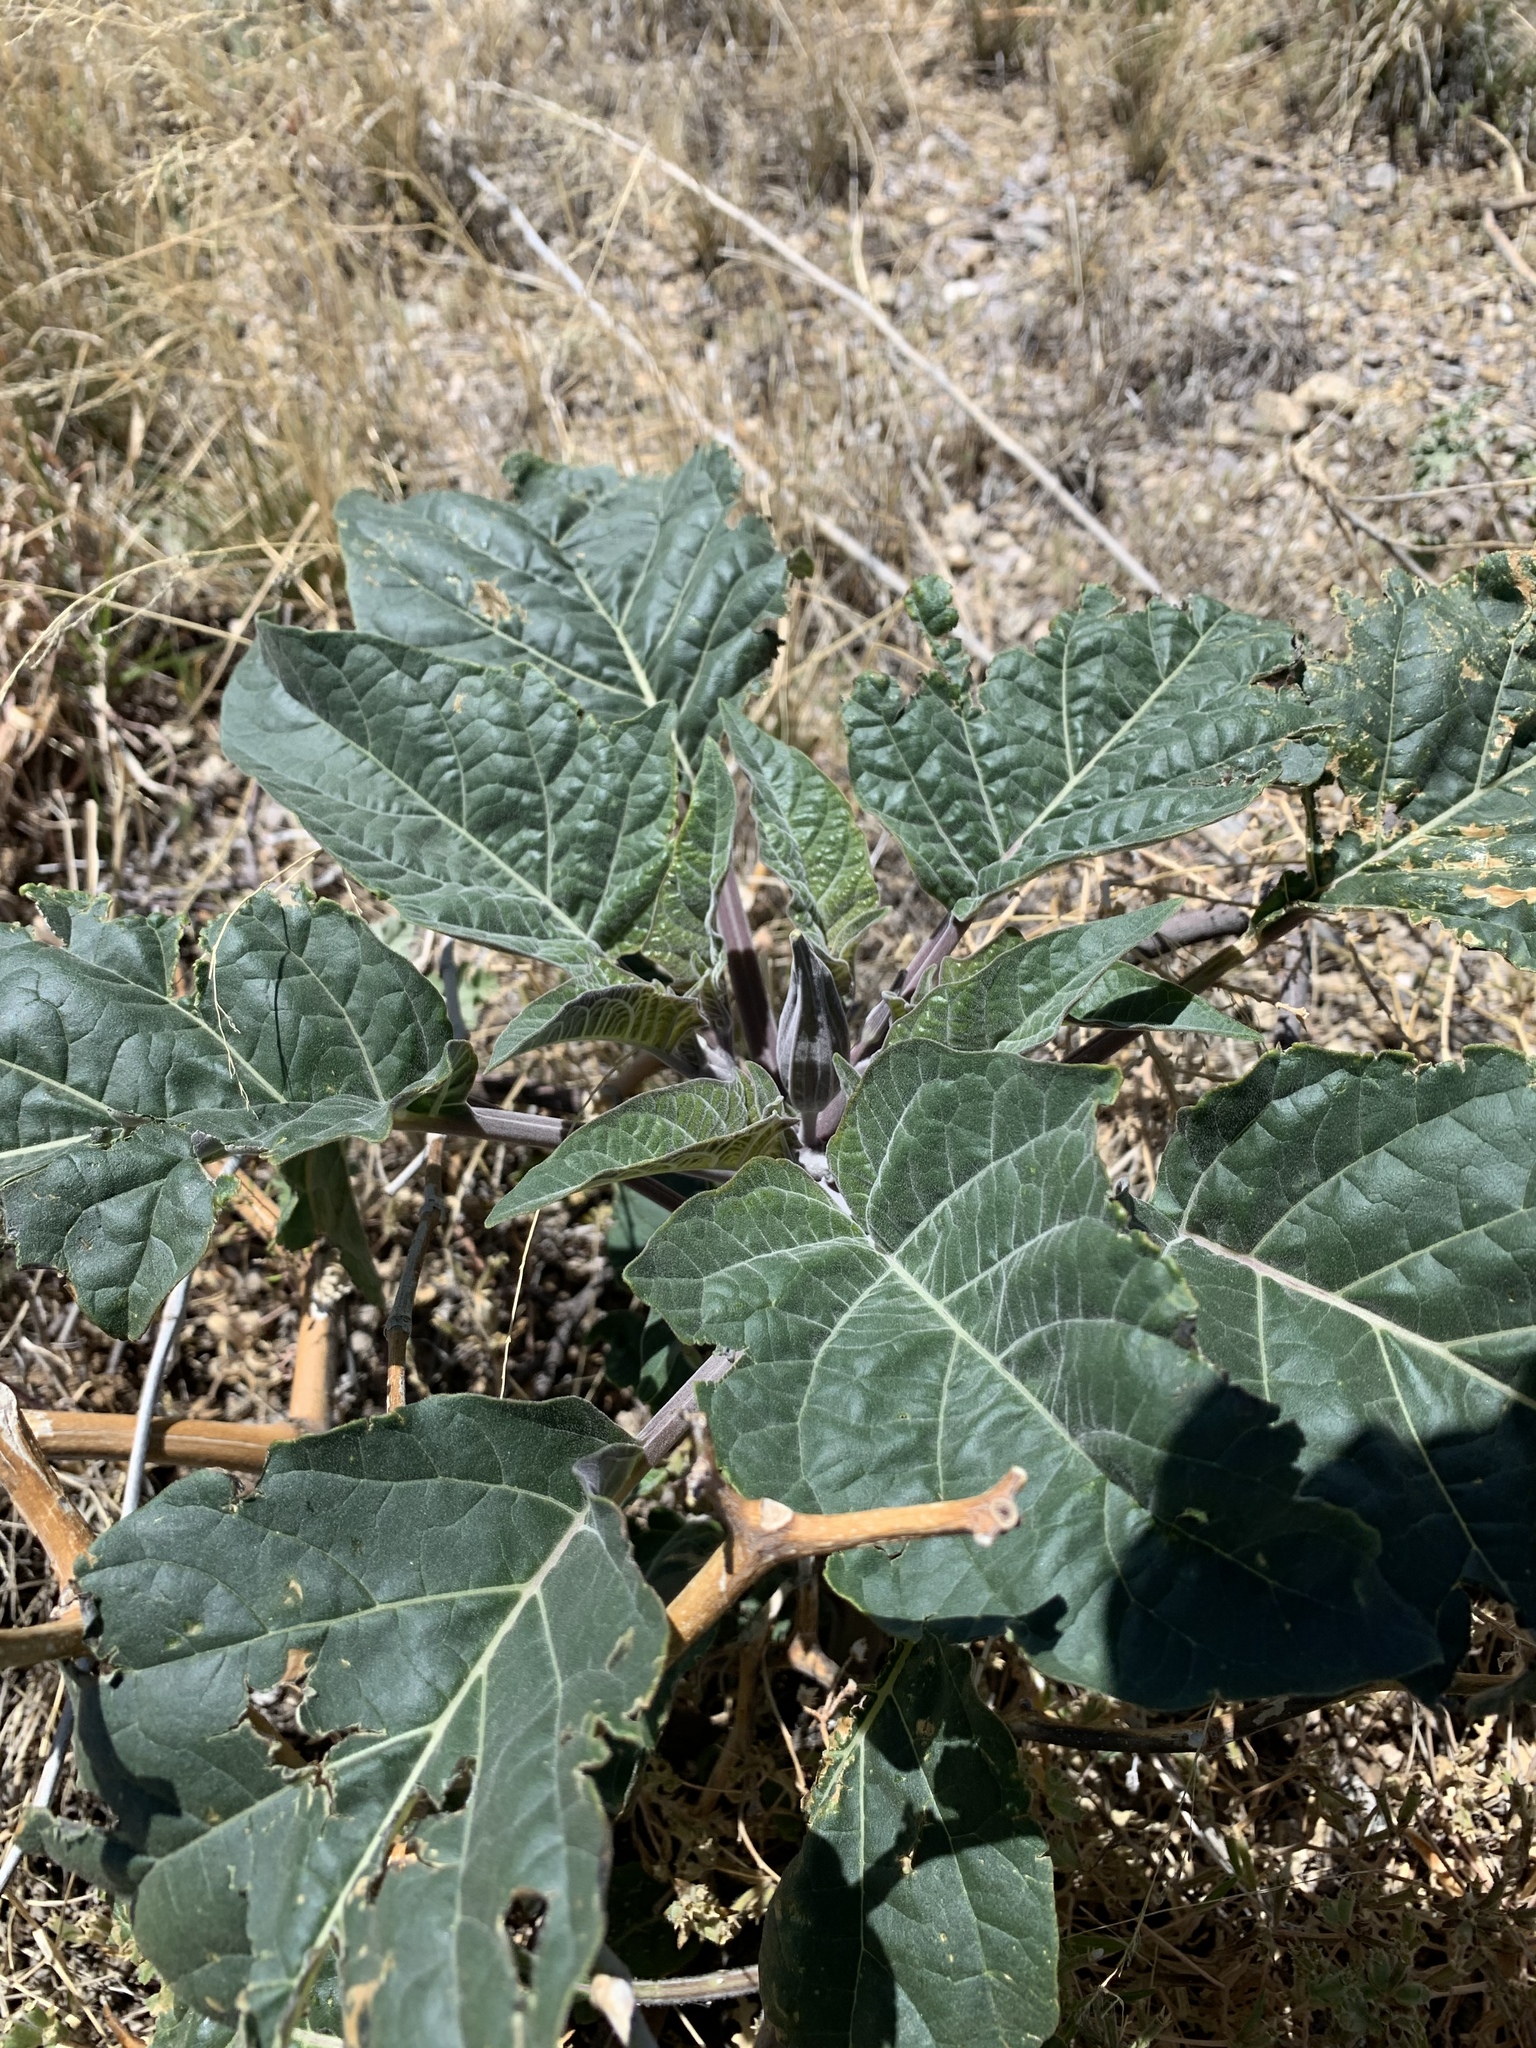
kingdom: Plantae
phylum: Tracheophyta
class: Magnoliopsida
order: Solanales
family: Solanaceae
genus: Datura
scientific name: Datura wrightii
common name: Sacred thorn-apple
